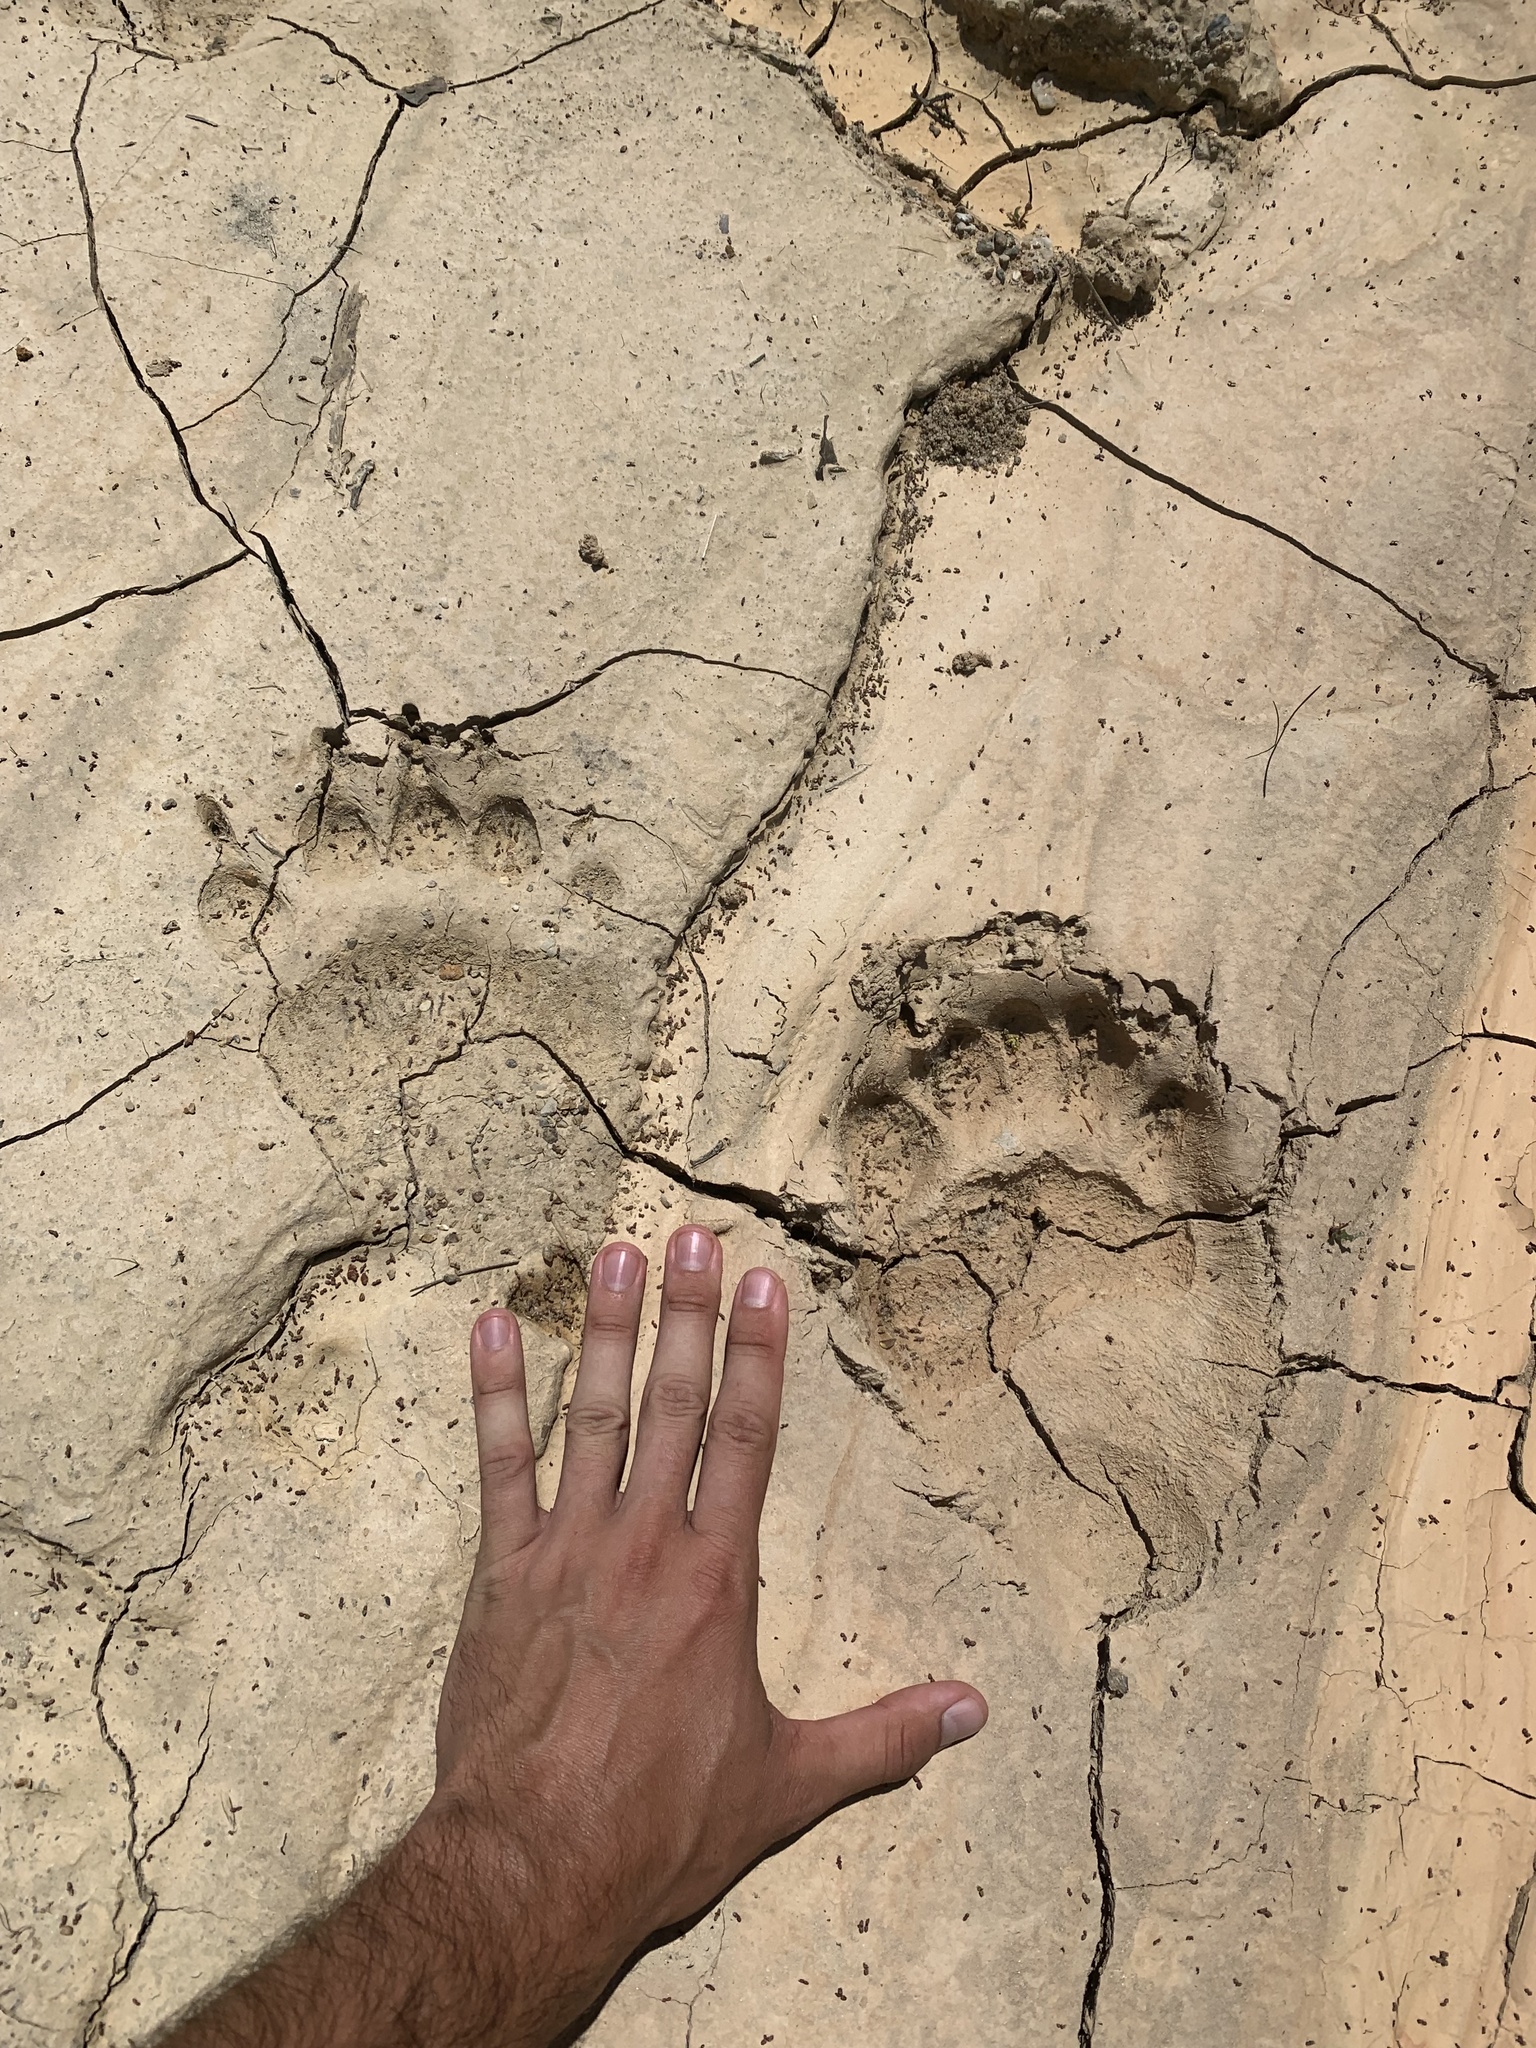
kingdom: Animalia
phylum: Chordata
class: Mammalia
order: Carnivora
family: Ursidae
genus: Ursus
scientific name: Ursus americanus
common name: American black bear
